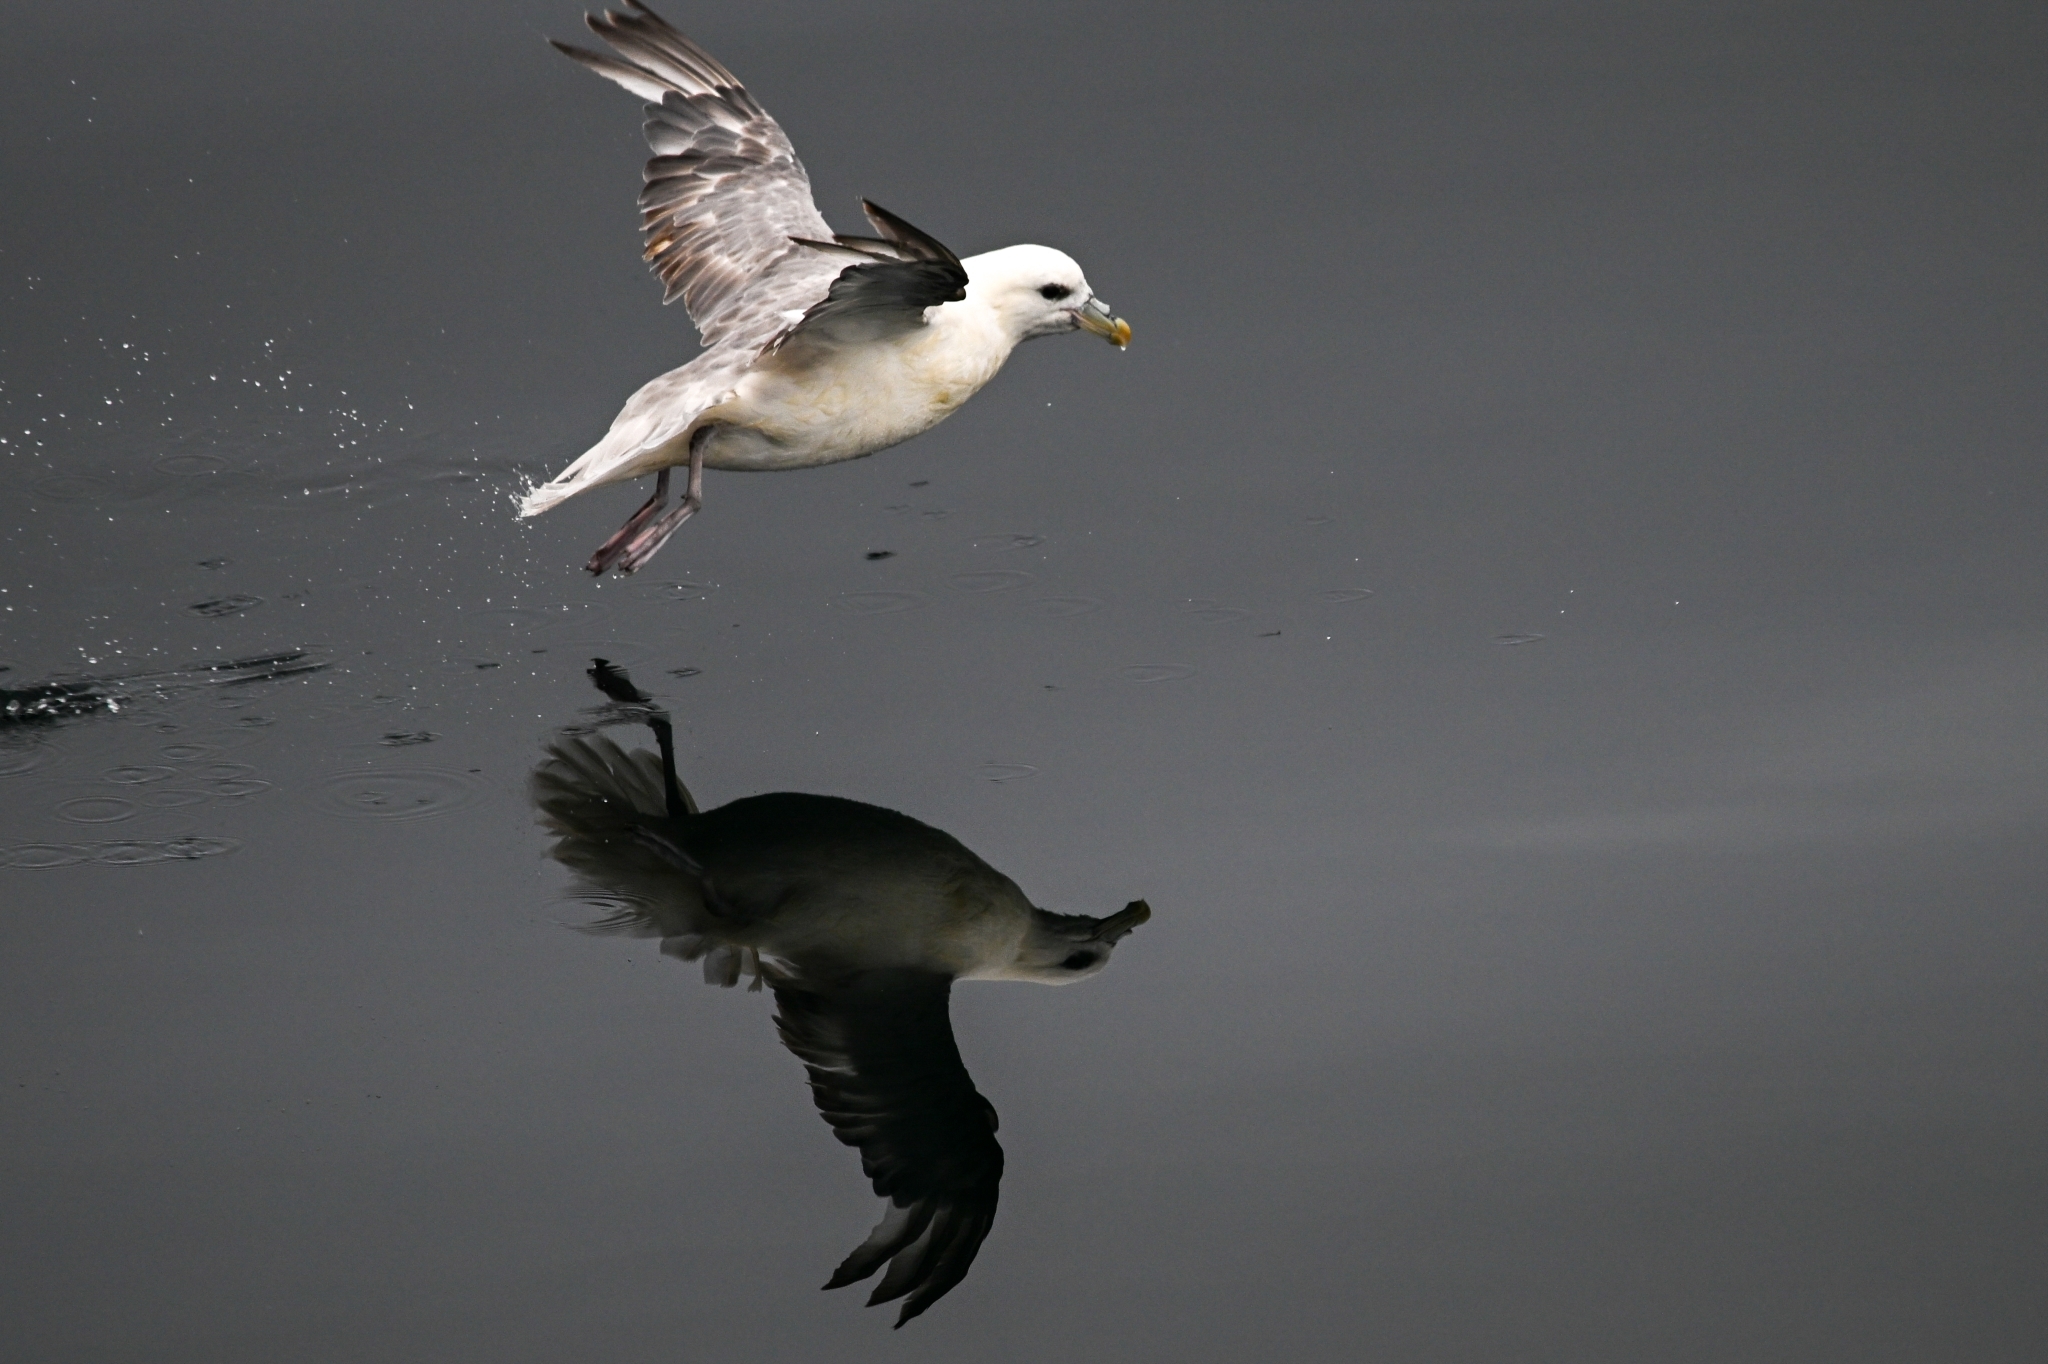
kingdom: Animalia
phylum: Chordata
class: Aves
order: Procellariiformes
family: Procellariidae
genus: Fulmarus
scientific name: Fulmarus glacialis
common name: Northern fulmar
